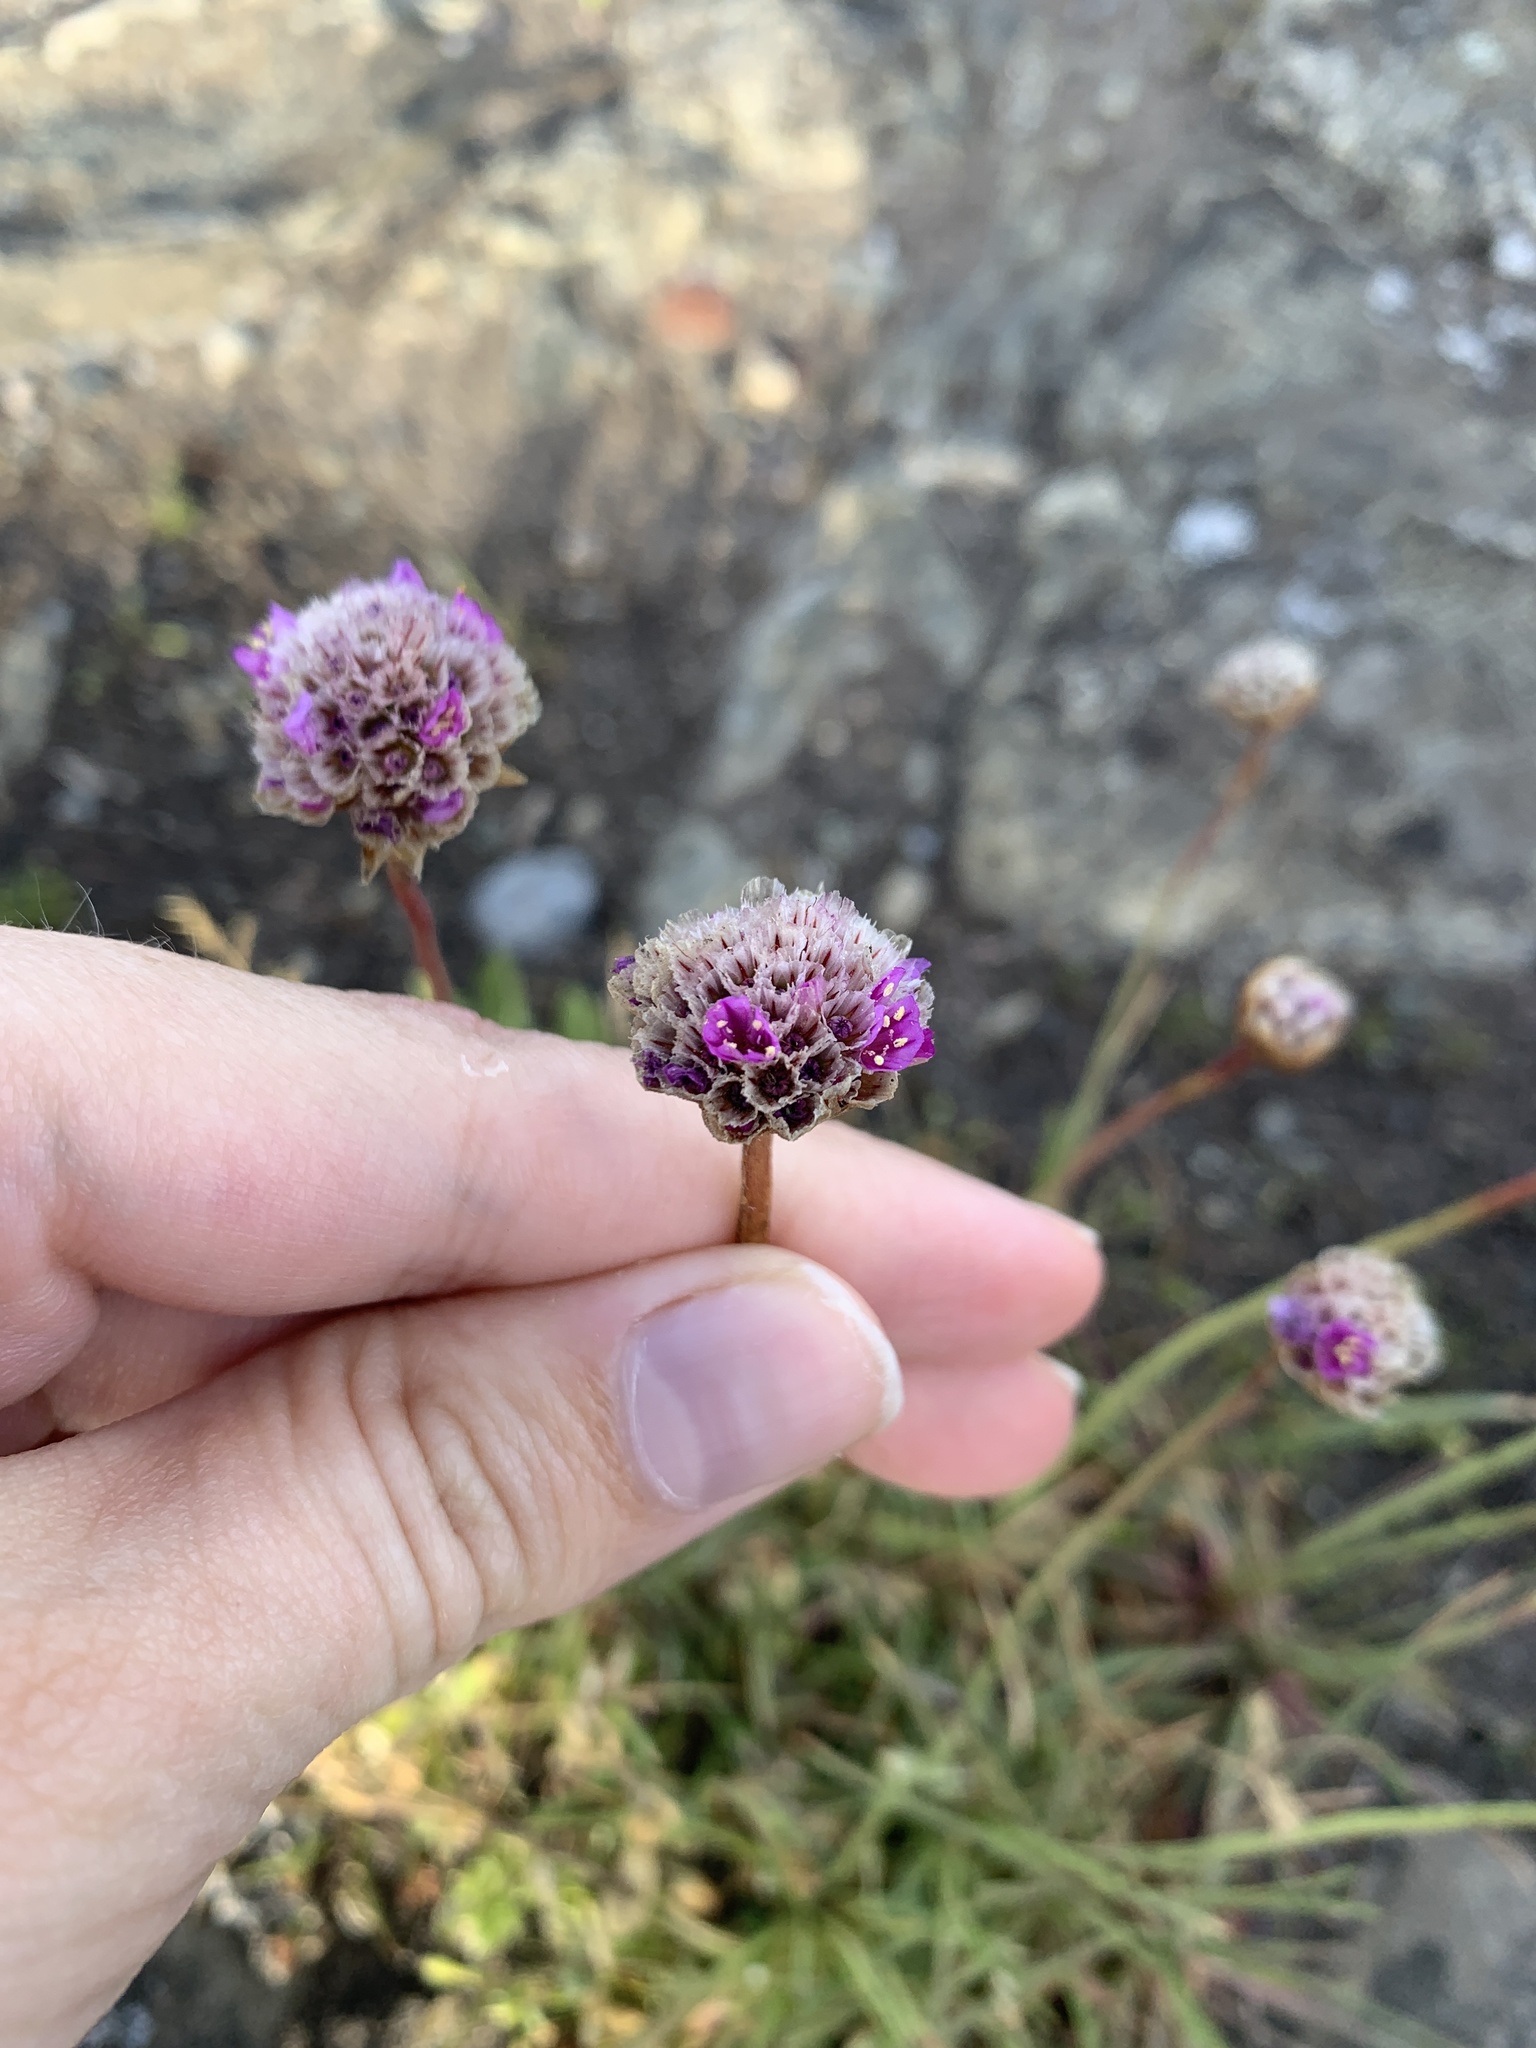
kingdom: Plantae
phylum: Tracheophyta
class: Magnoliopsida
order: Caryophyllales
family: Plumbaginaceae
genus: Armeria
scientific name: Armeria maritima
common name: Thrift
